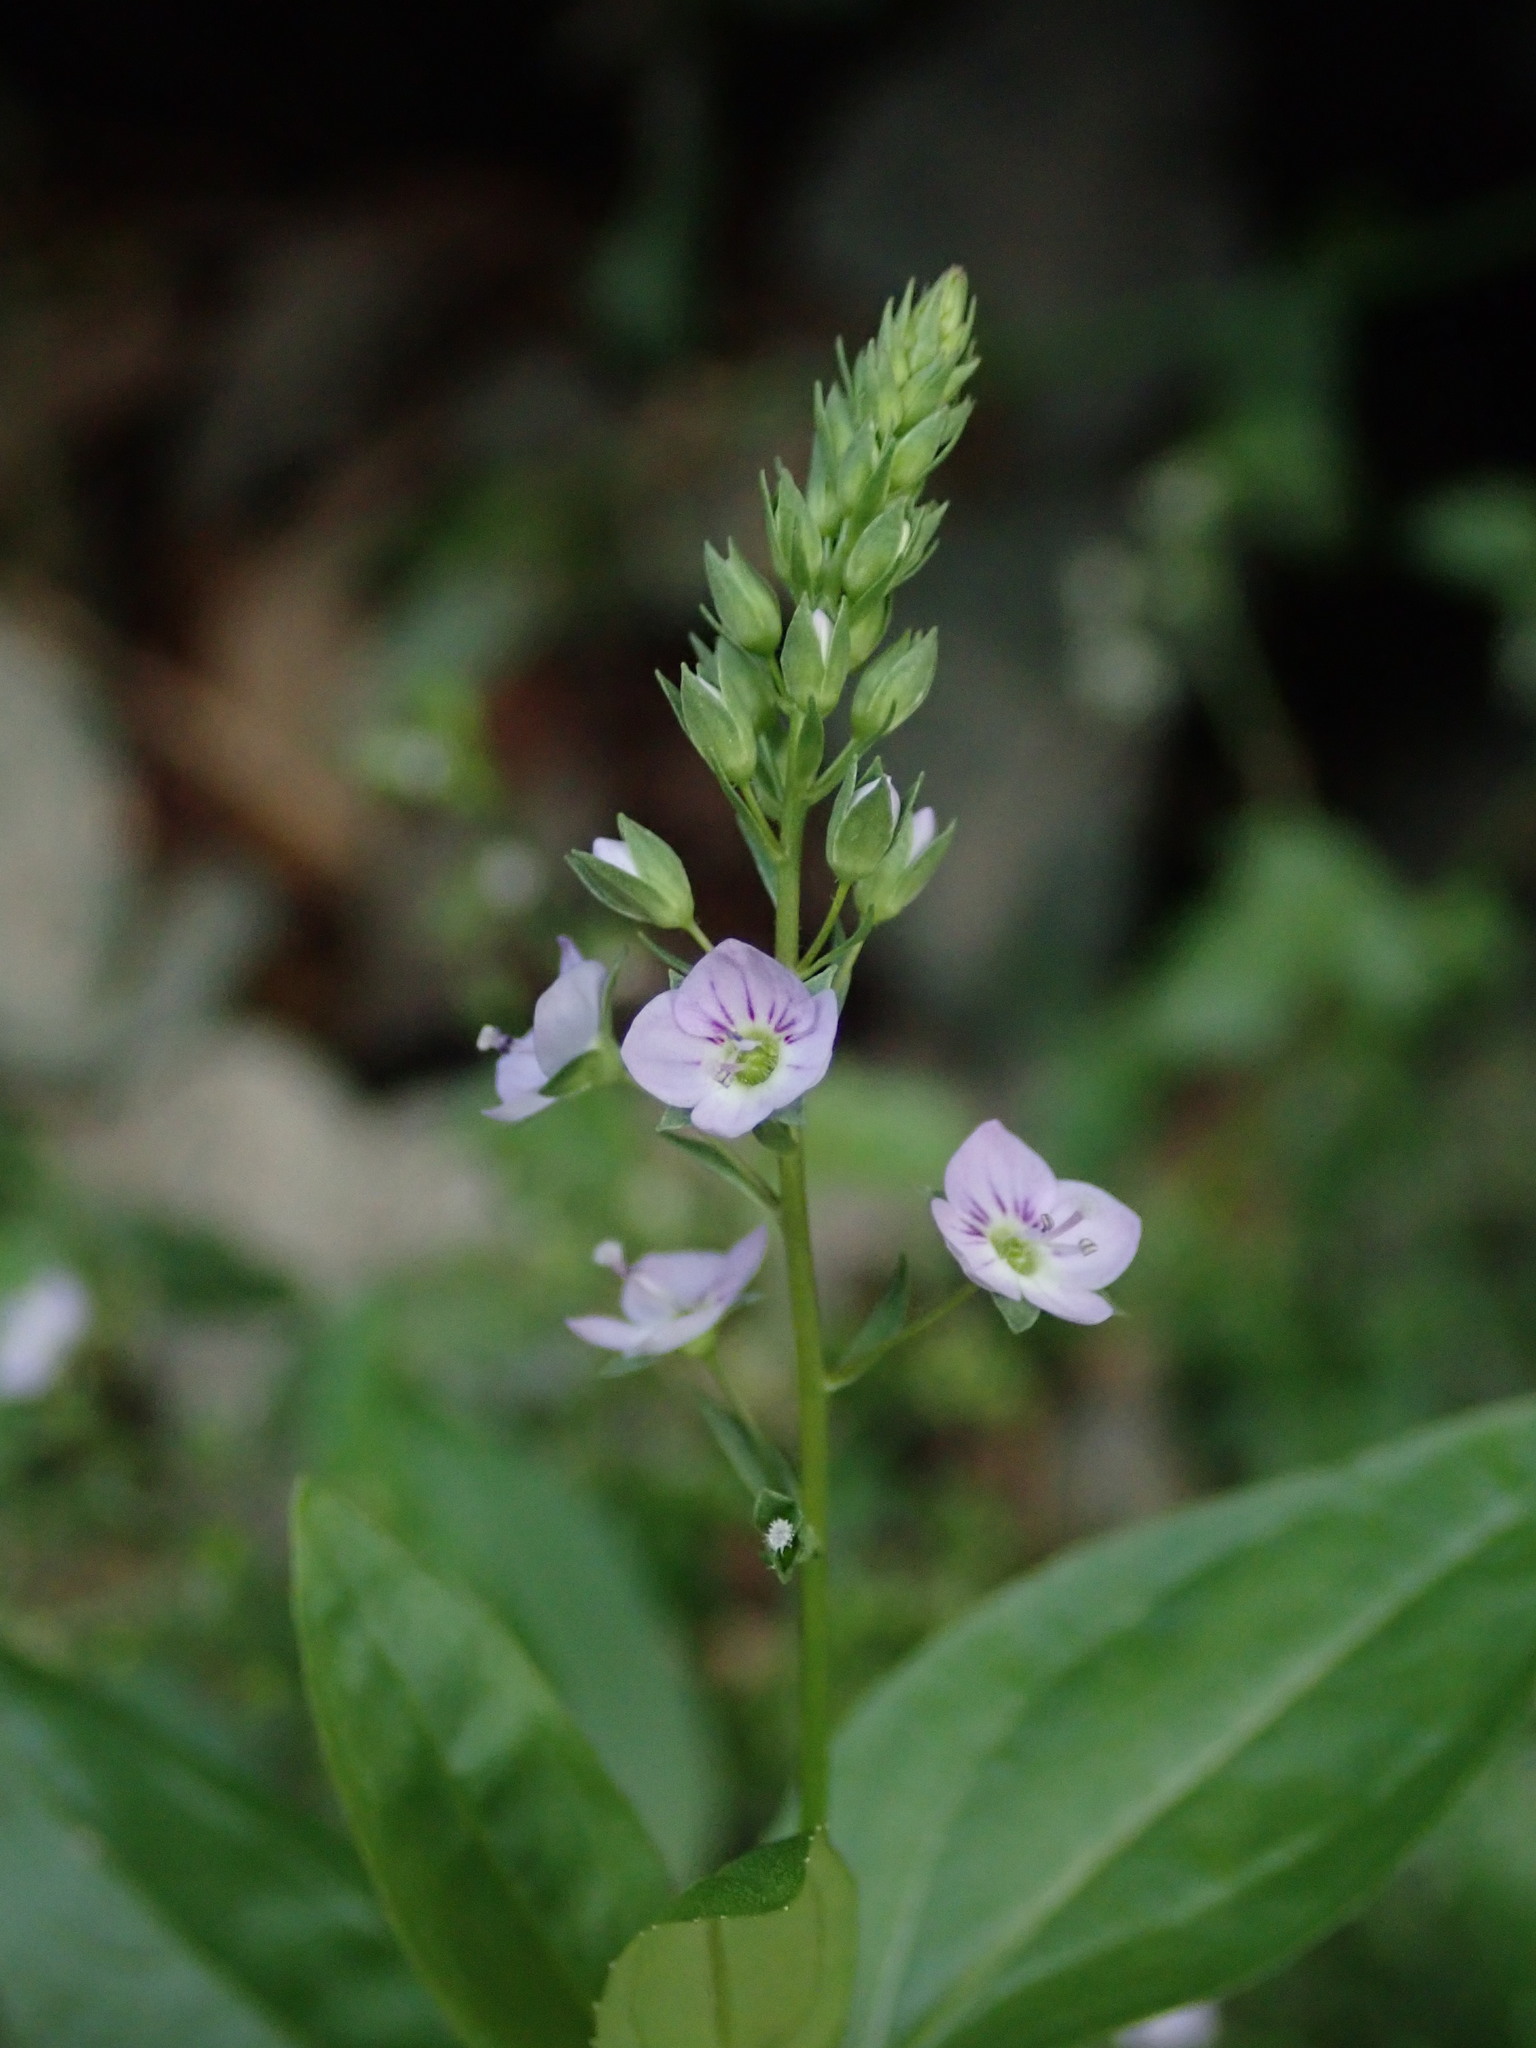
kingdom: Plantae
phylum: Tracheophyta
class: Magnoliopsida
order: Lamiales
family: Plantaginaceae
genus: Veronica
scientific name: Veronica anagallis-aquatica
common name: Water speedwell
